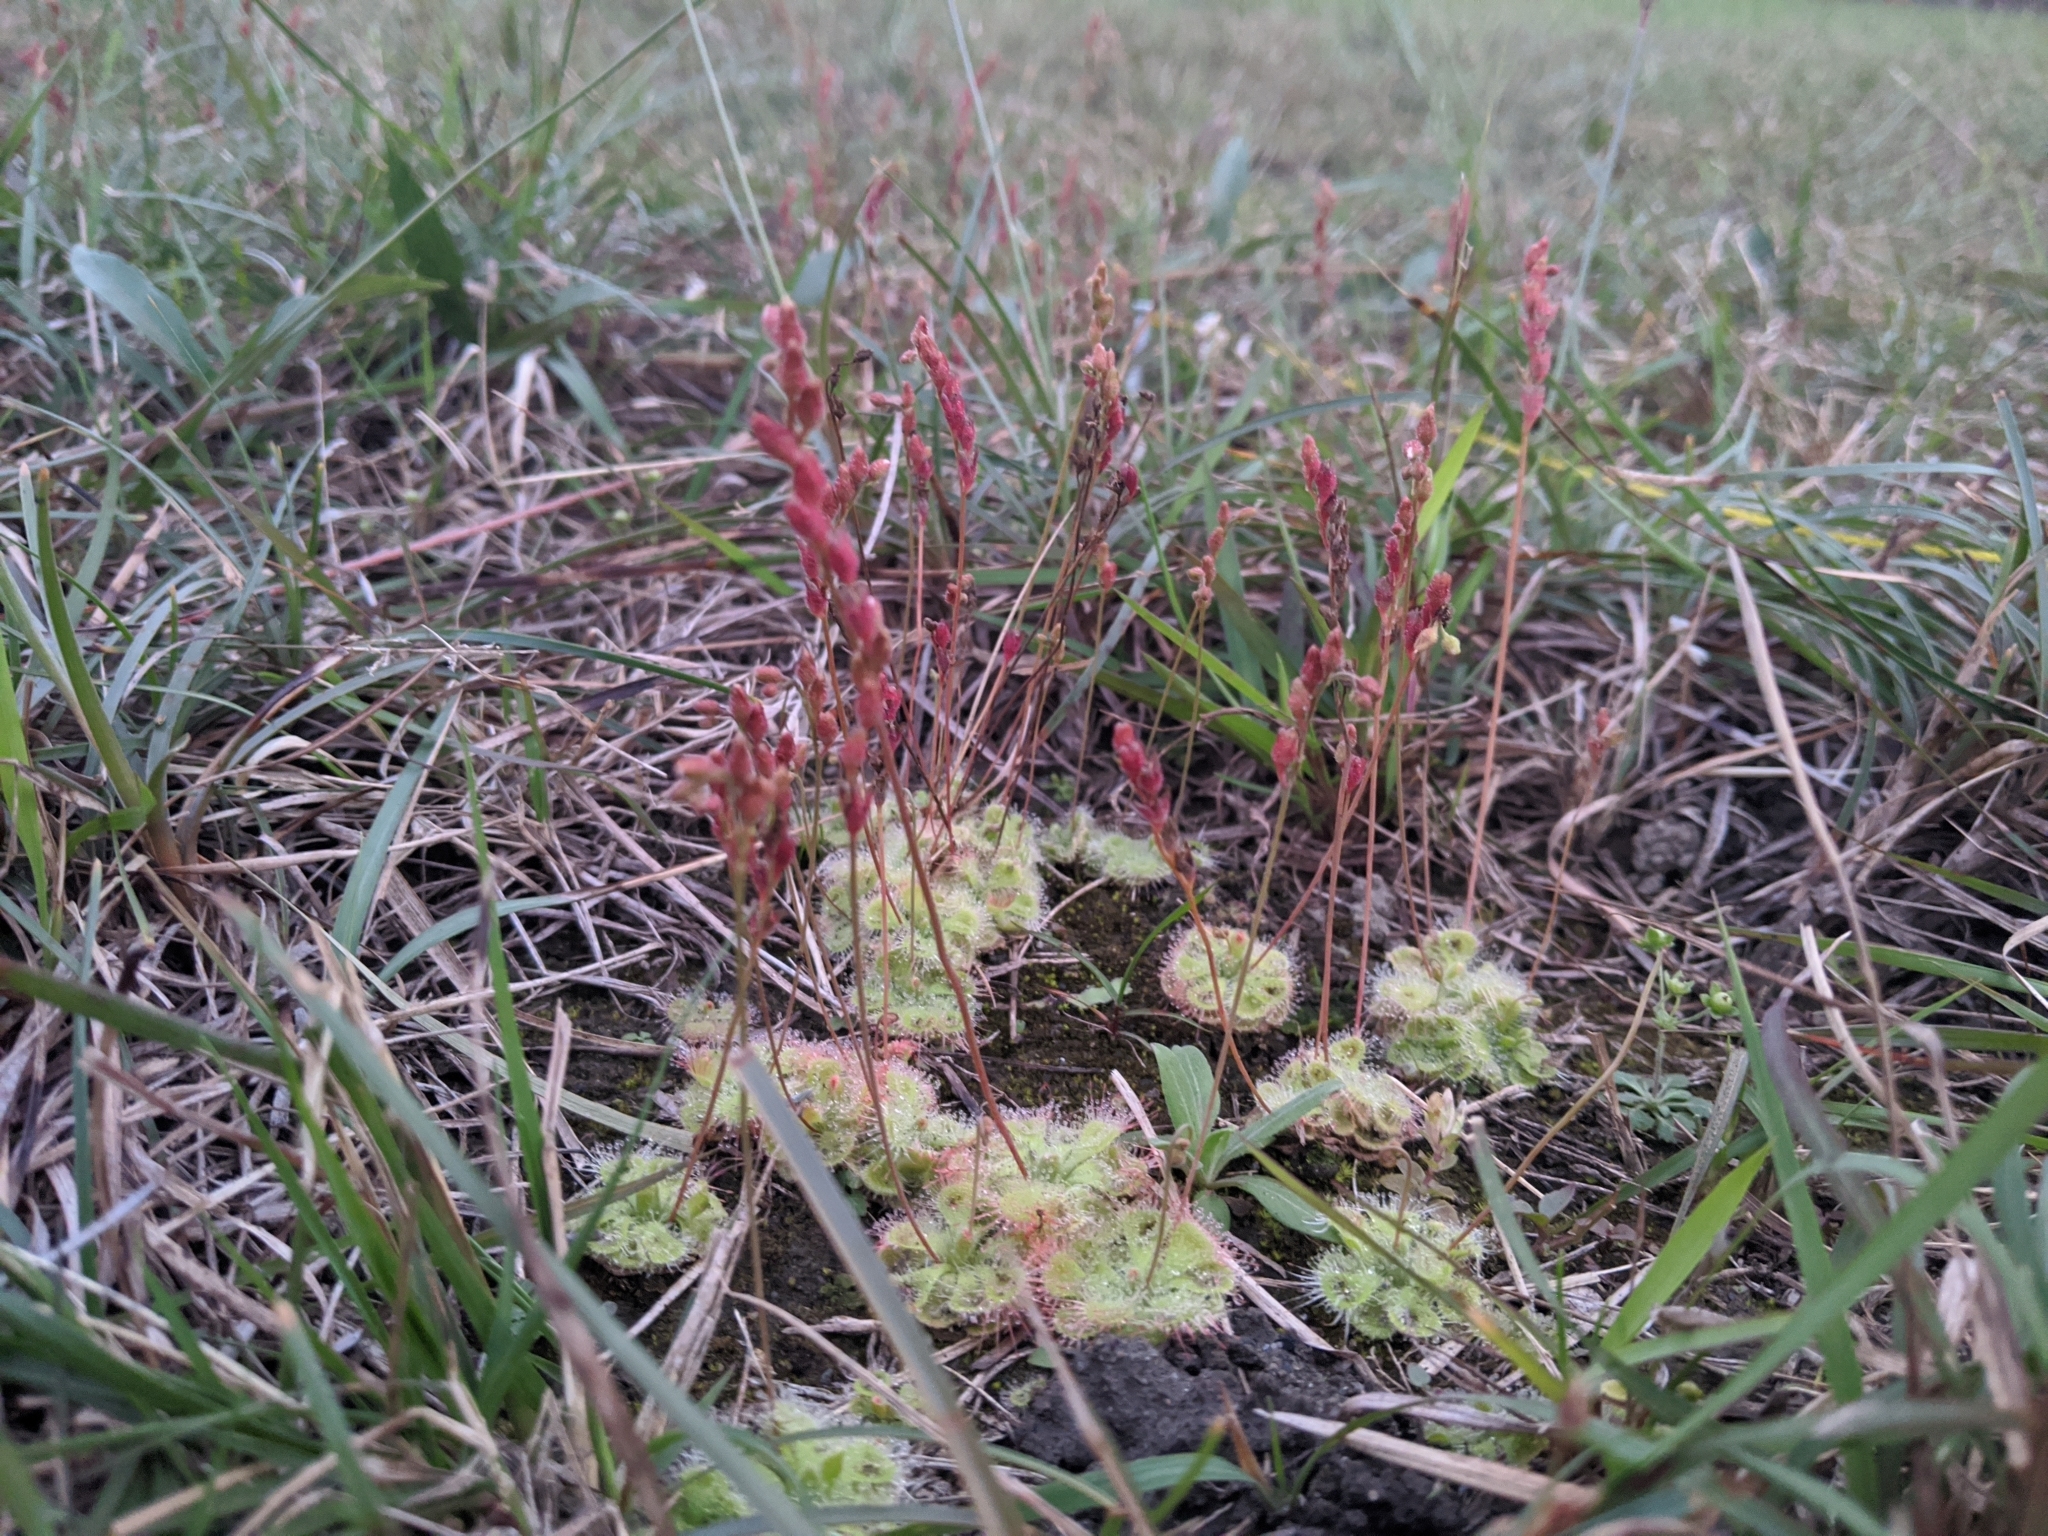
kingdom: Plantae
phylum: Tracheophyta
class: Magnoliopsida
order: Caryophyllales
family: Droseraceae
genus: Drosera
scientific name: Drosera spatulata
